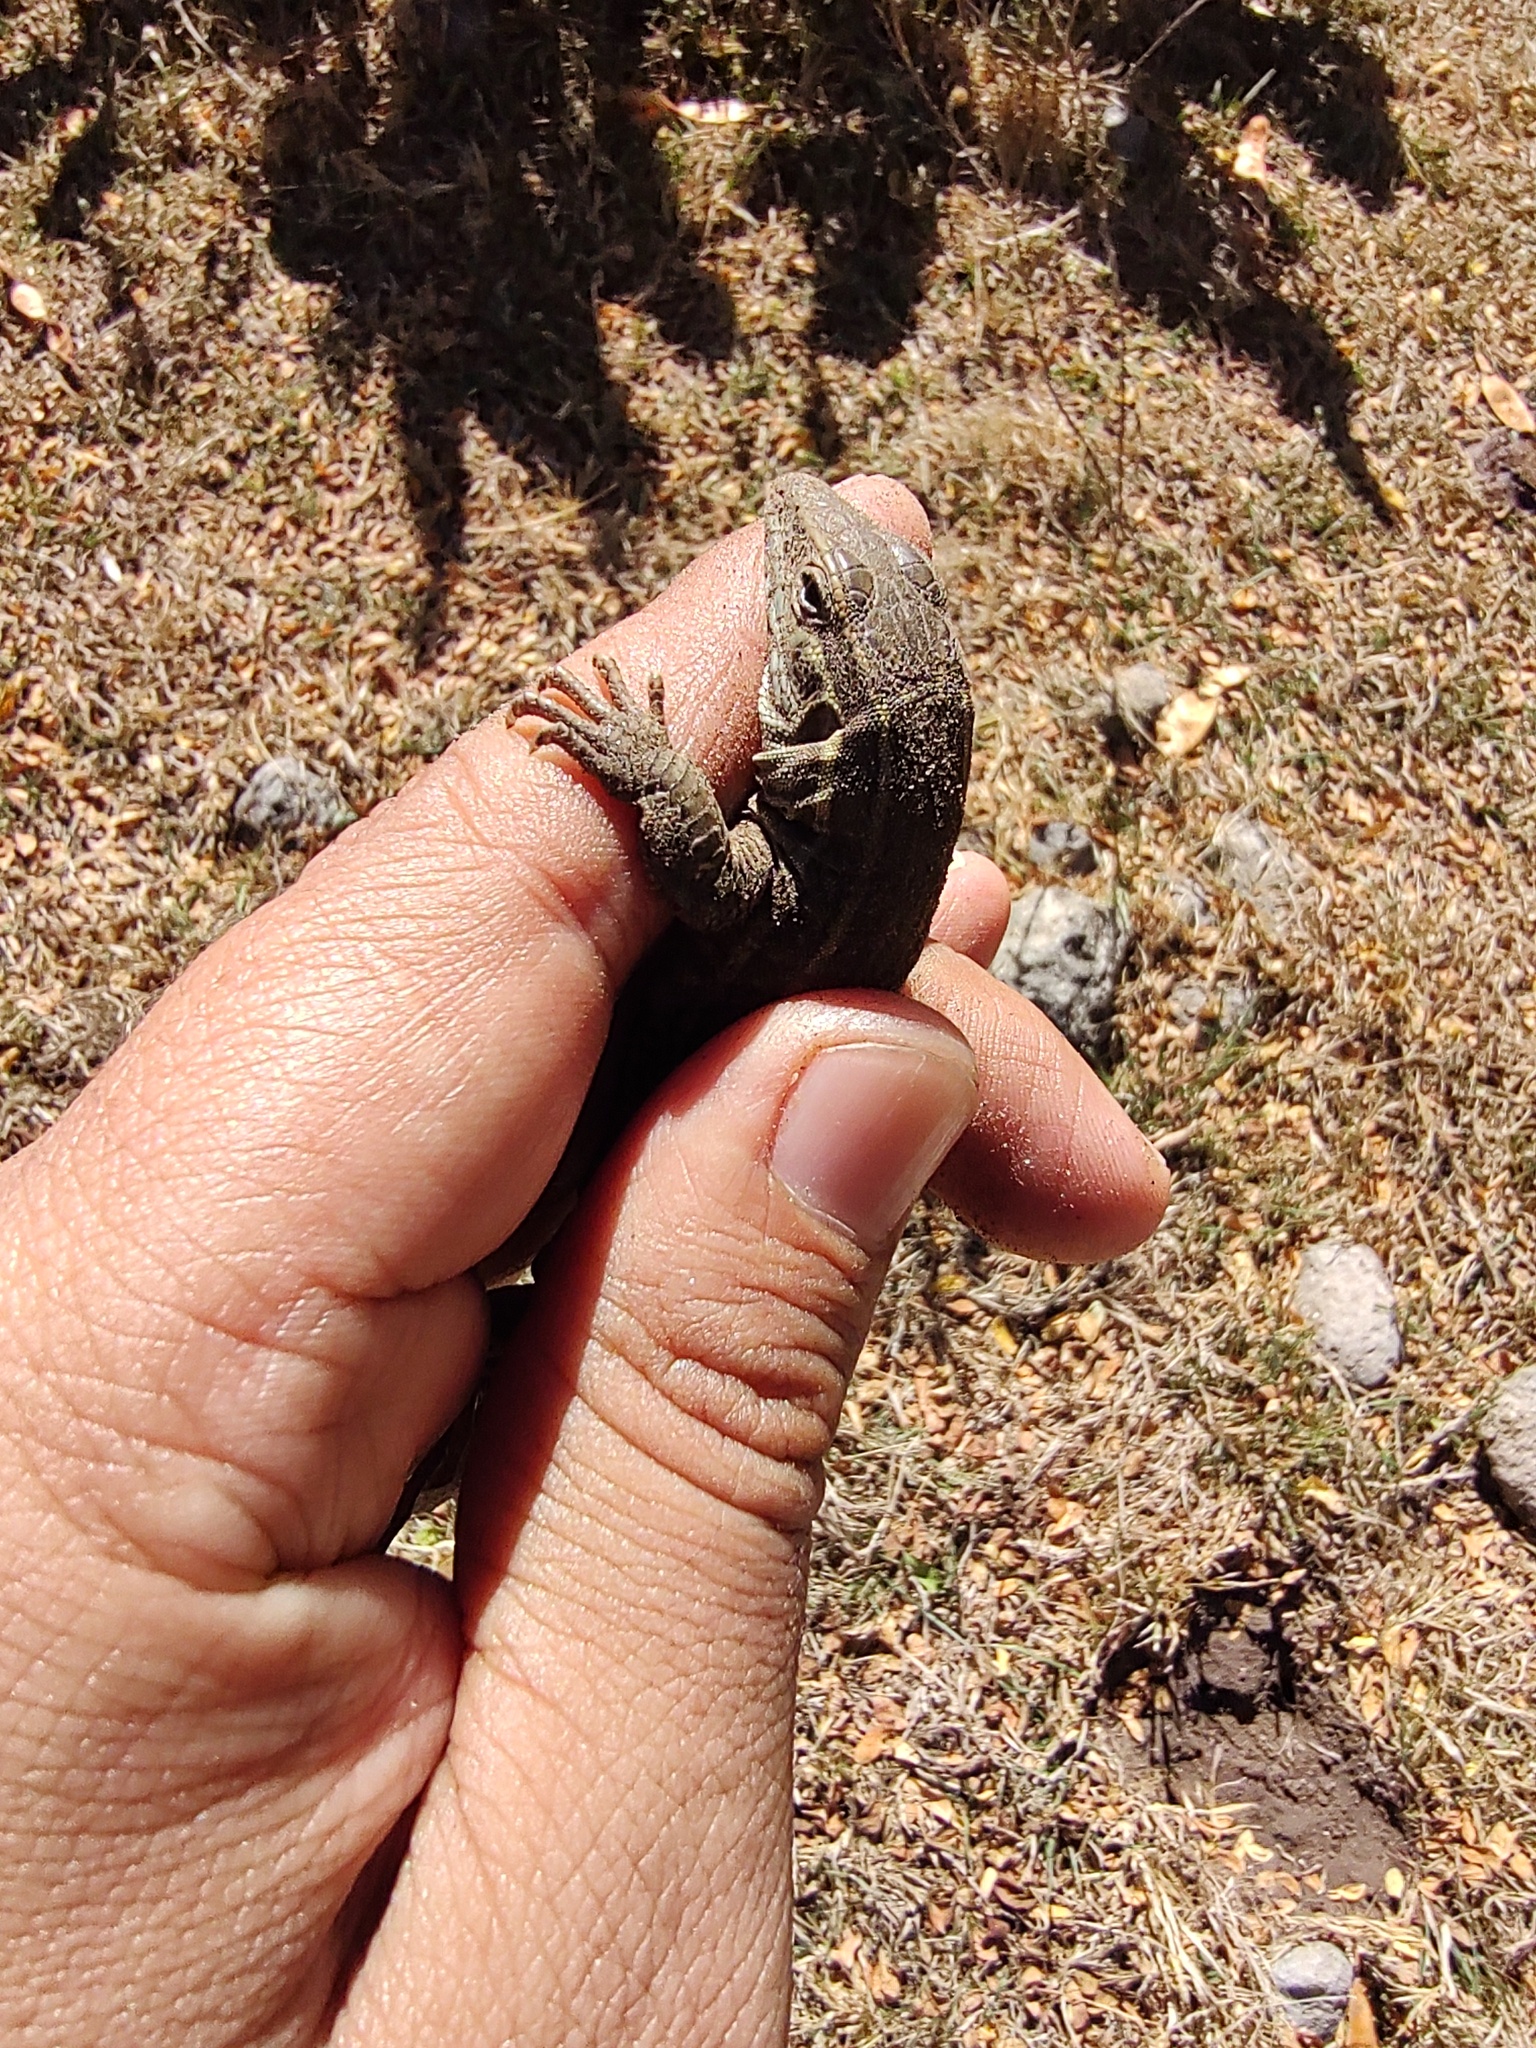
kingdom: Animalia
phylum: Chordata
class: Squamata
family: Teiidae
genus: Aspidoscelis
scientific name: Aspidoscelis gularis
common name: Eastern spotted whiptail
